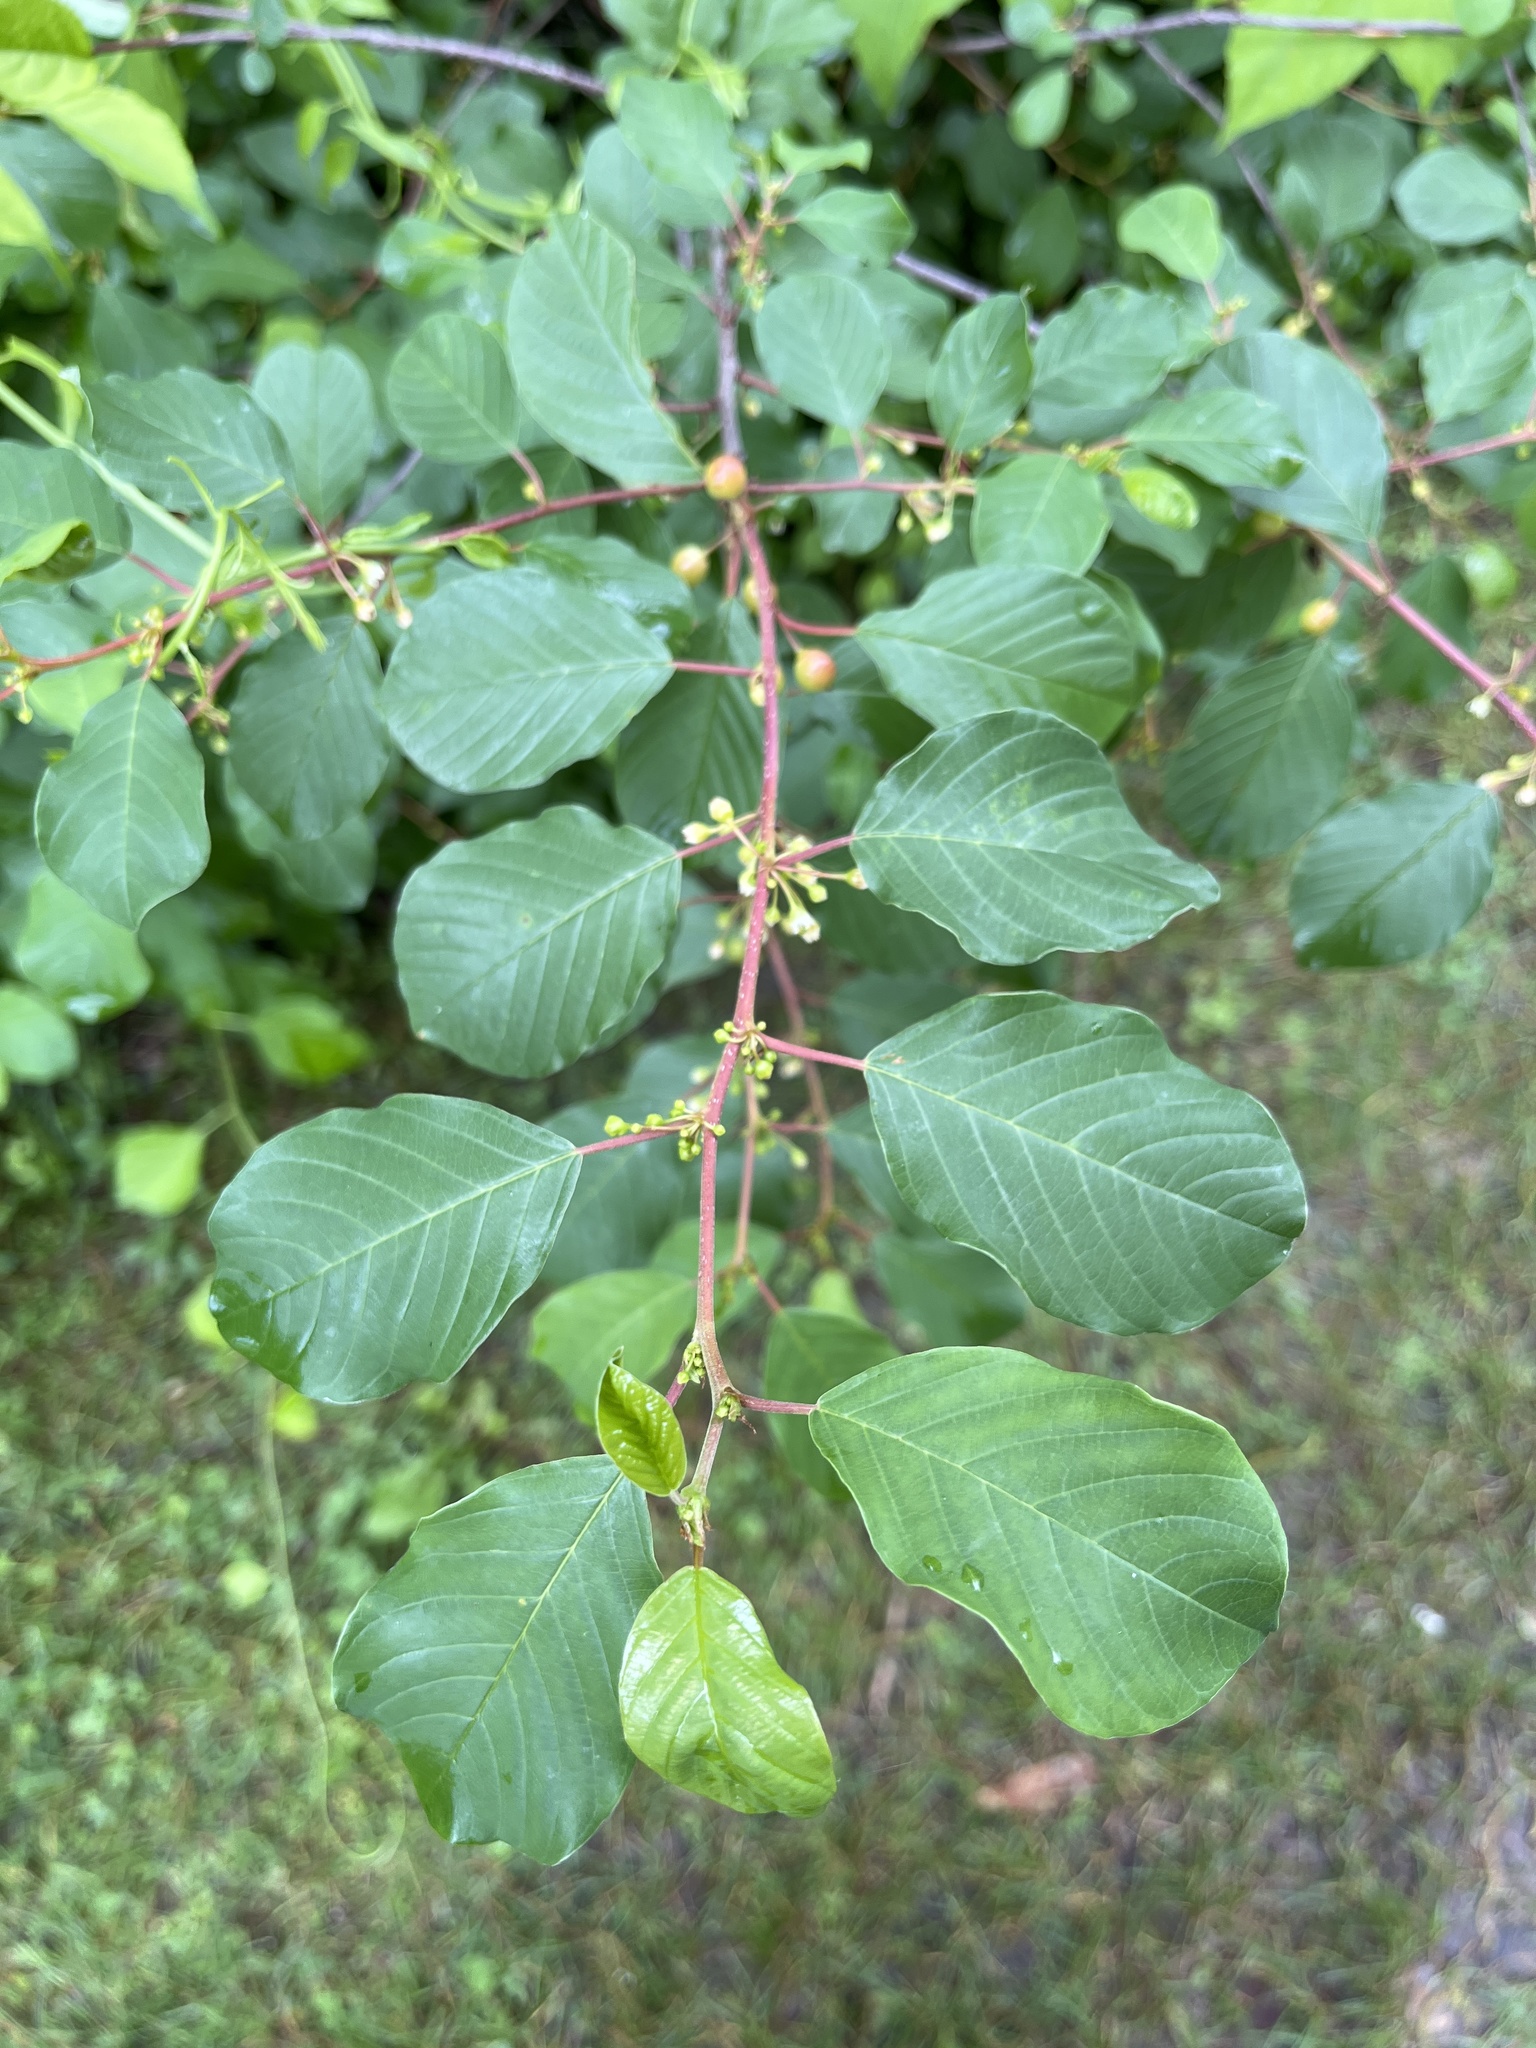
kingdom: Plantae
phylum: Tracheophyta
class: Magnoliopsida
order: Rosales
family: Rhamnaceae
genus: Frangula
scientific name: Frangula alnus
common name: Alder buckthorn
